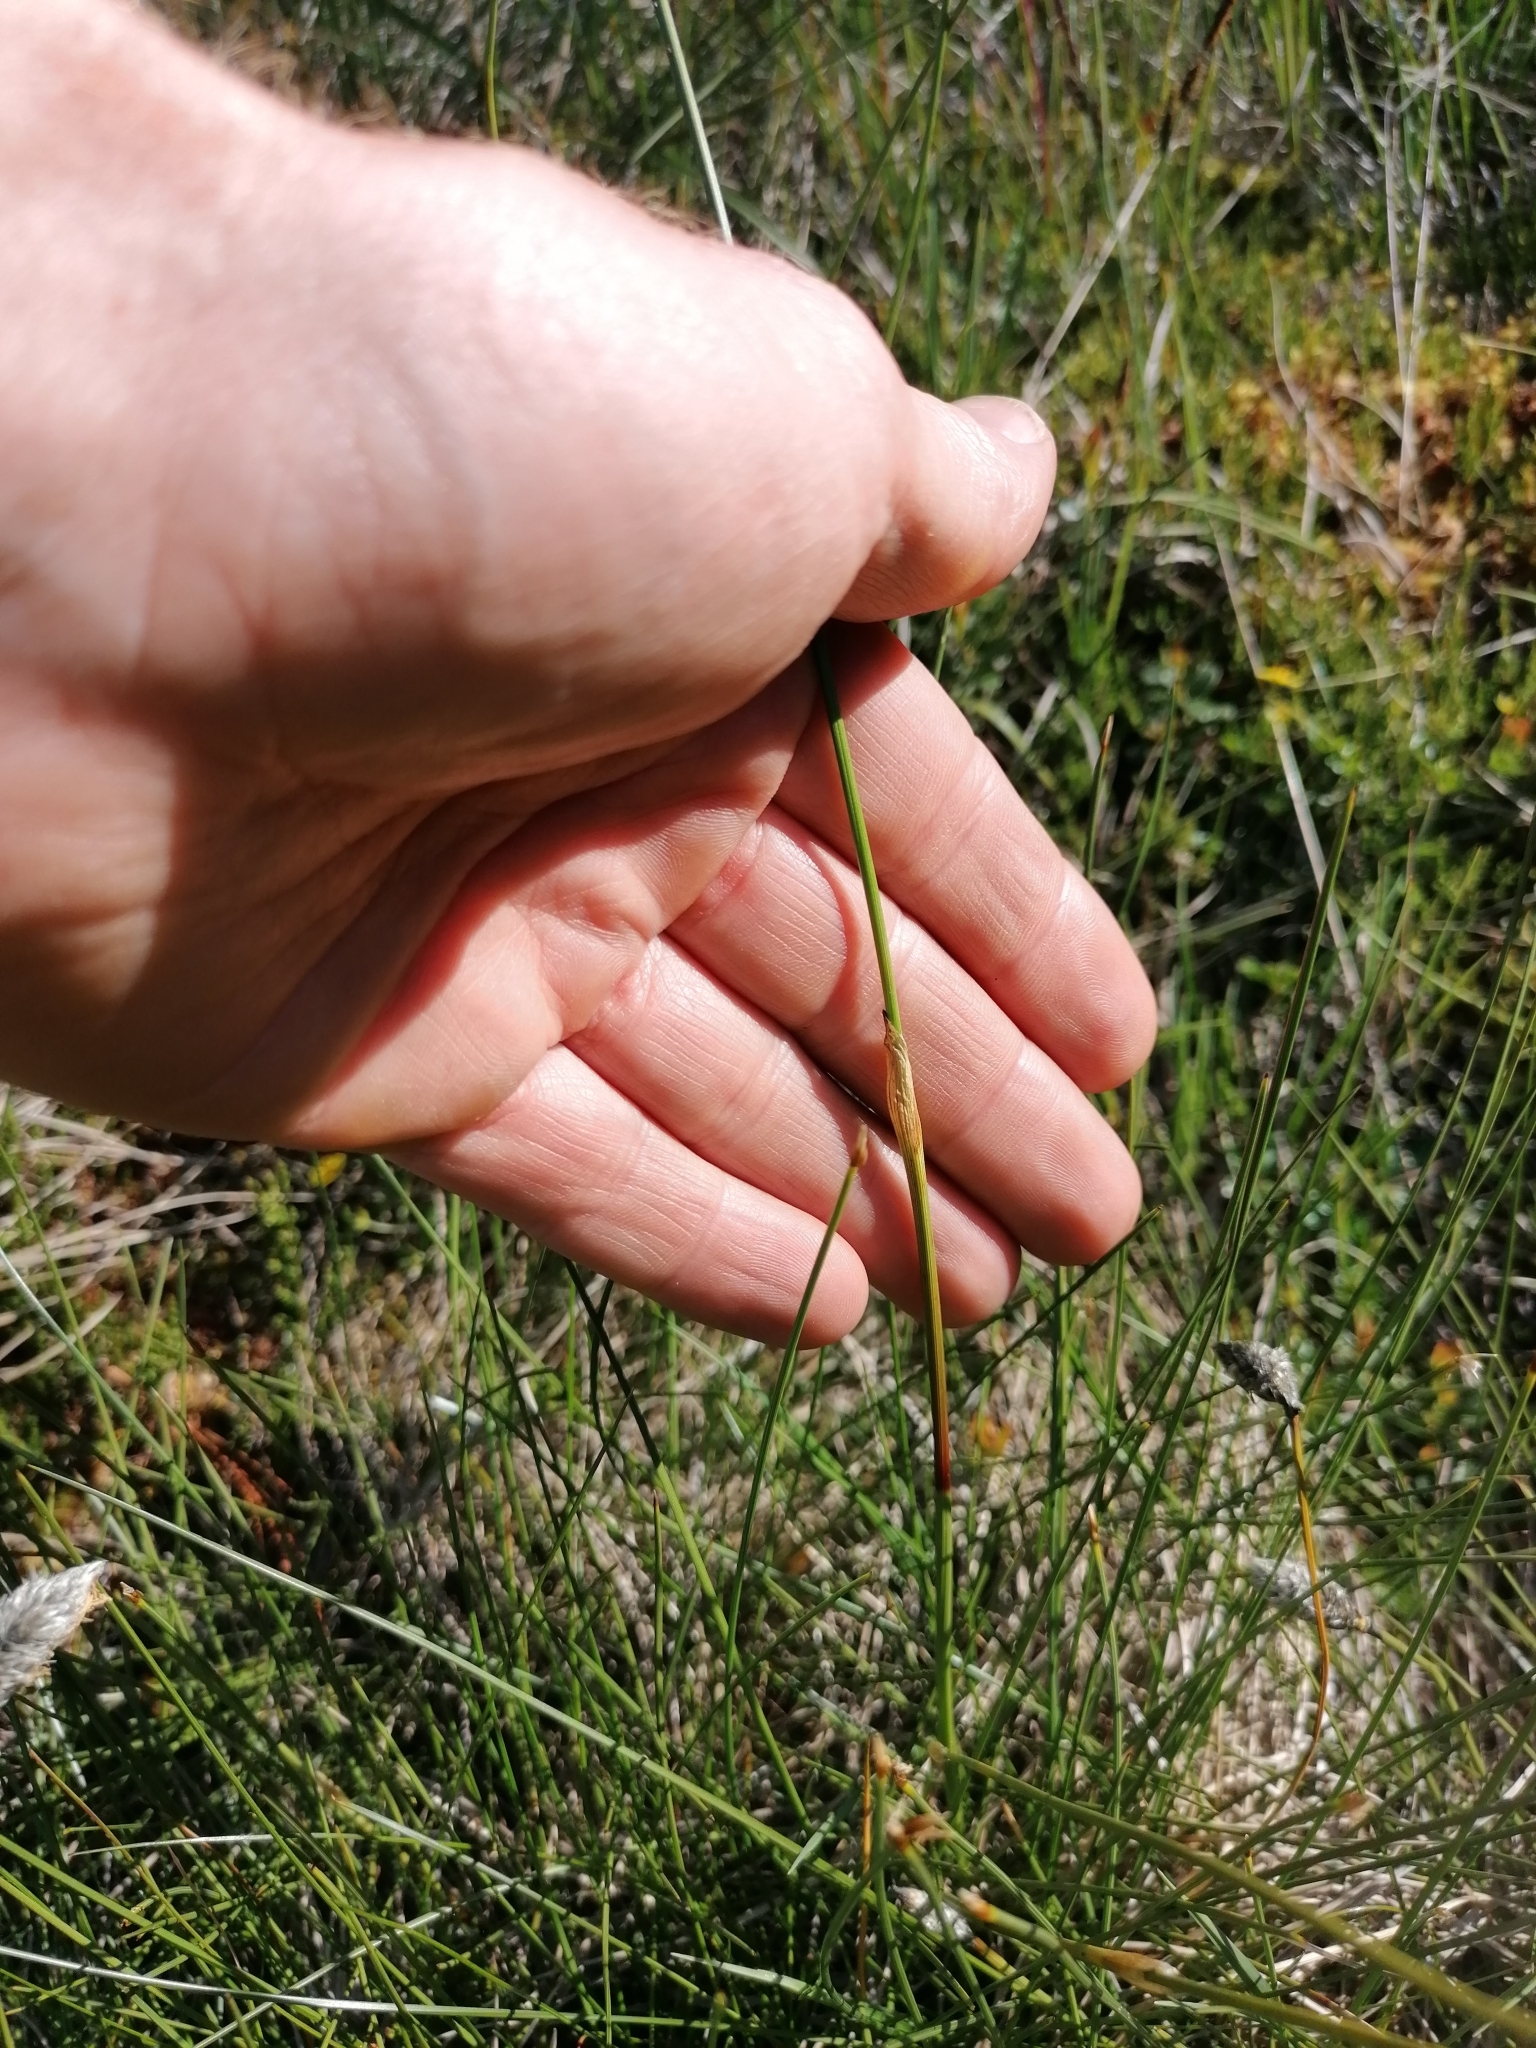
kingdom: Plantae
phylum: Tracheophyta
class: Liliopsida
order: Poales
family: Cyperaceae
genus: Eriophorum
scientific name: Eriophorum vaginatum
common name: Hare's-tail cottongrass
